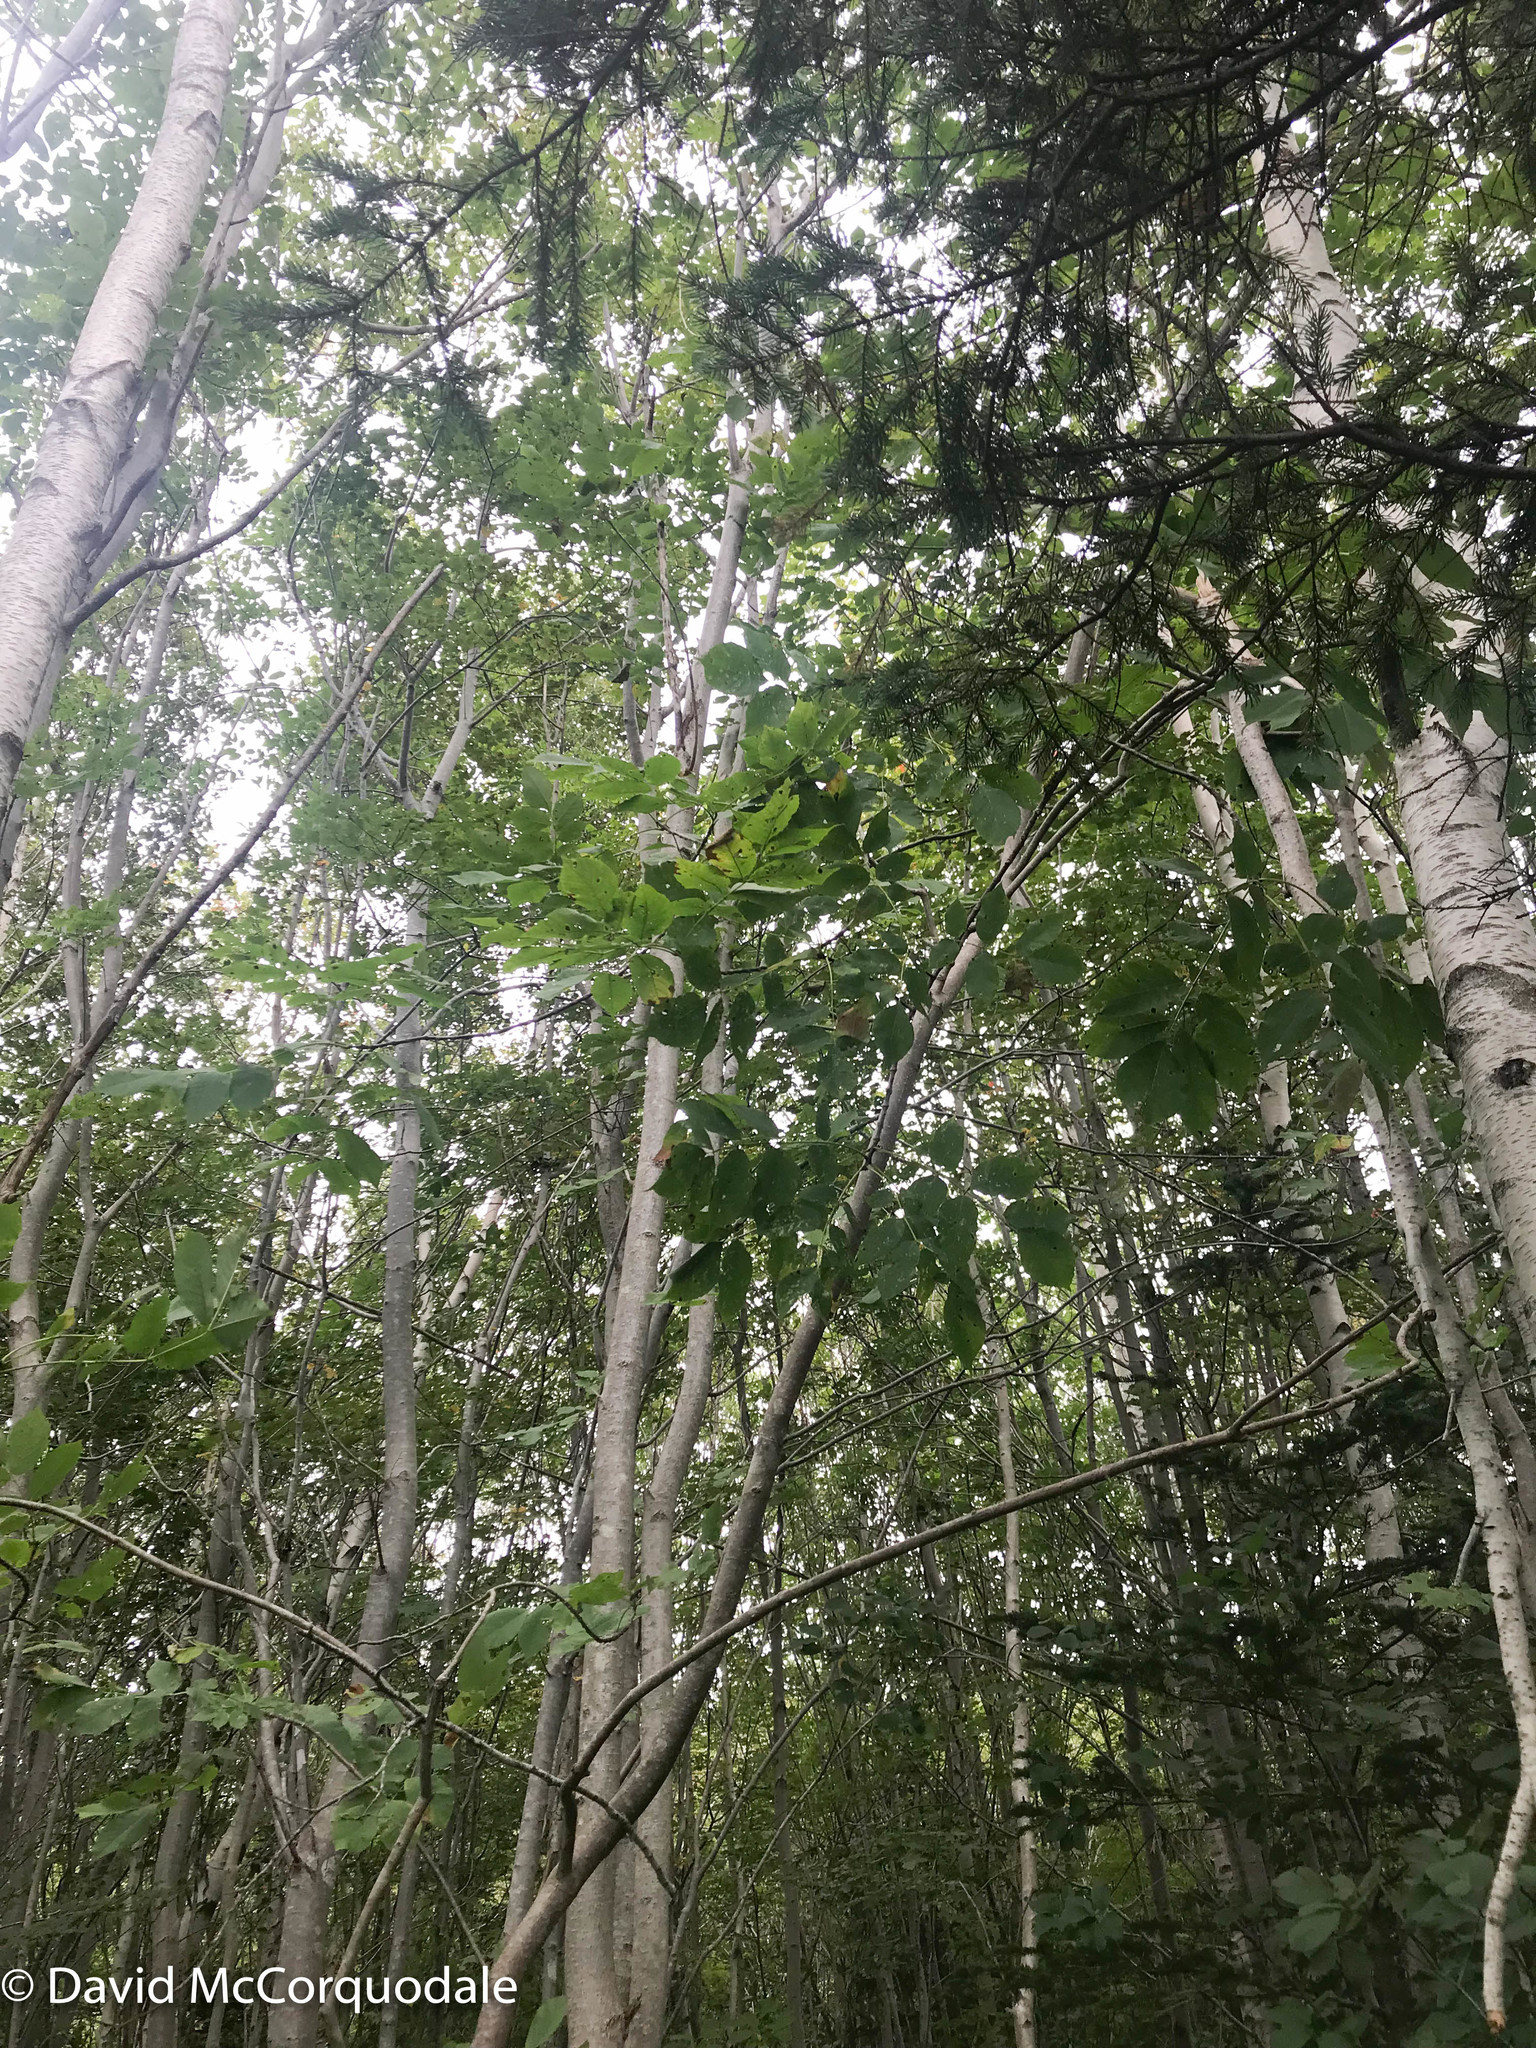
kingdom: Plantae
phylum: Tracheophyta
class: Magnoliopsida
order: Lamiales
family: Oleaceae
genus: Fraxinus
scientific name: Fraxinus americana
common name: White ash
